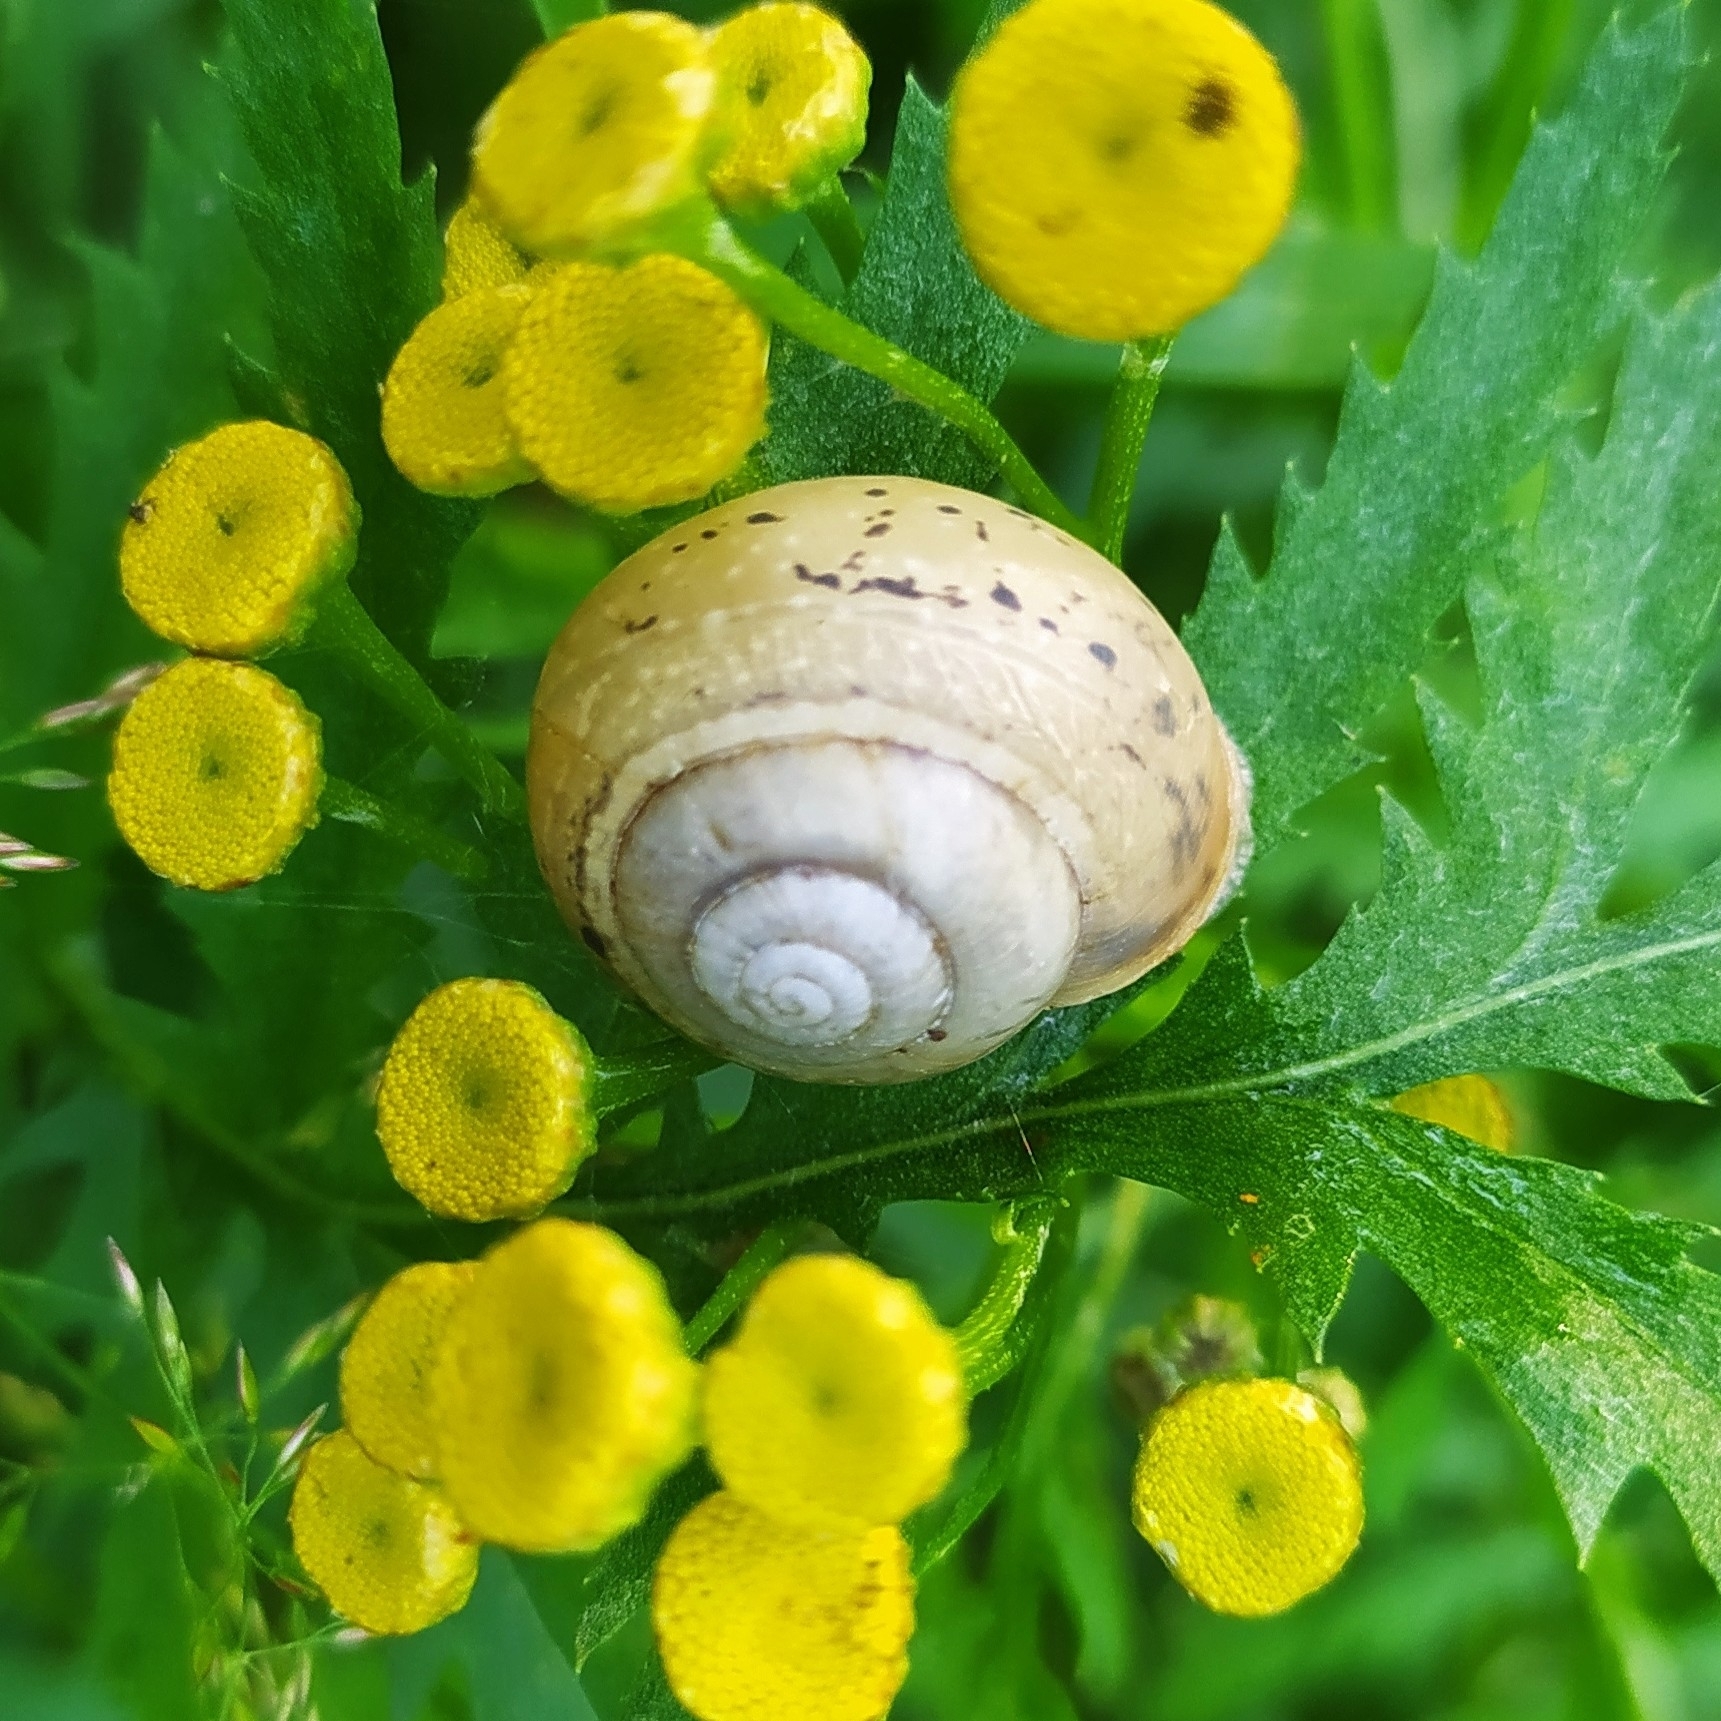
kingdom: Animalia
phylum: Mollusca
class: Gastropoda
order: Stylommatophora
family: Camaenidae
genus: Fruticicola
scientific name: Fruticicola fruticum
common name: Bush snail
